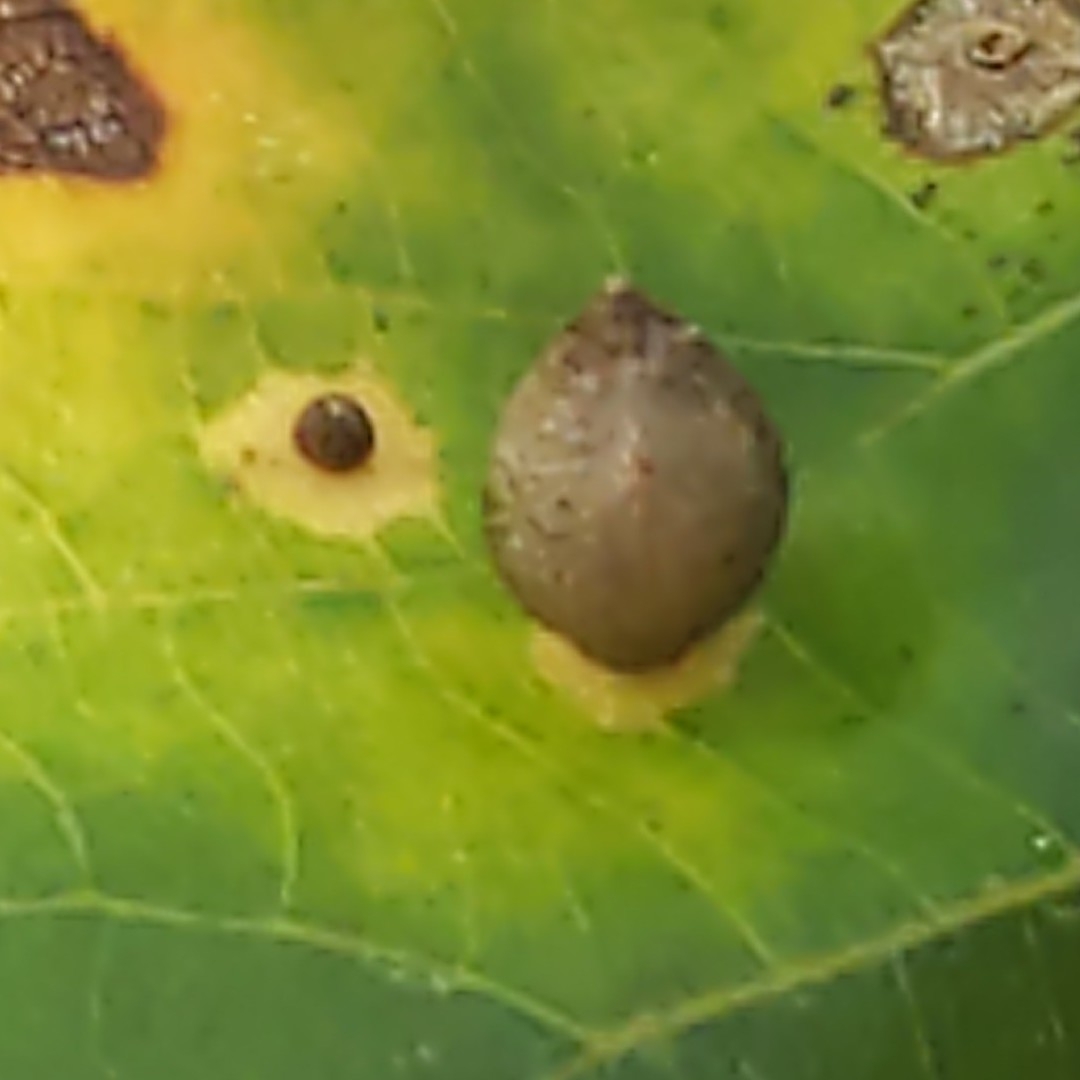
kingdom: Animalia
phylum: Arthropoda
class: Insecta
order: Diptera
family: Cecidomyiidae
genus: Caryomyia
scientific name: Caryomyia viscidolium
